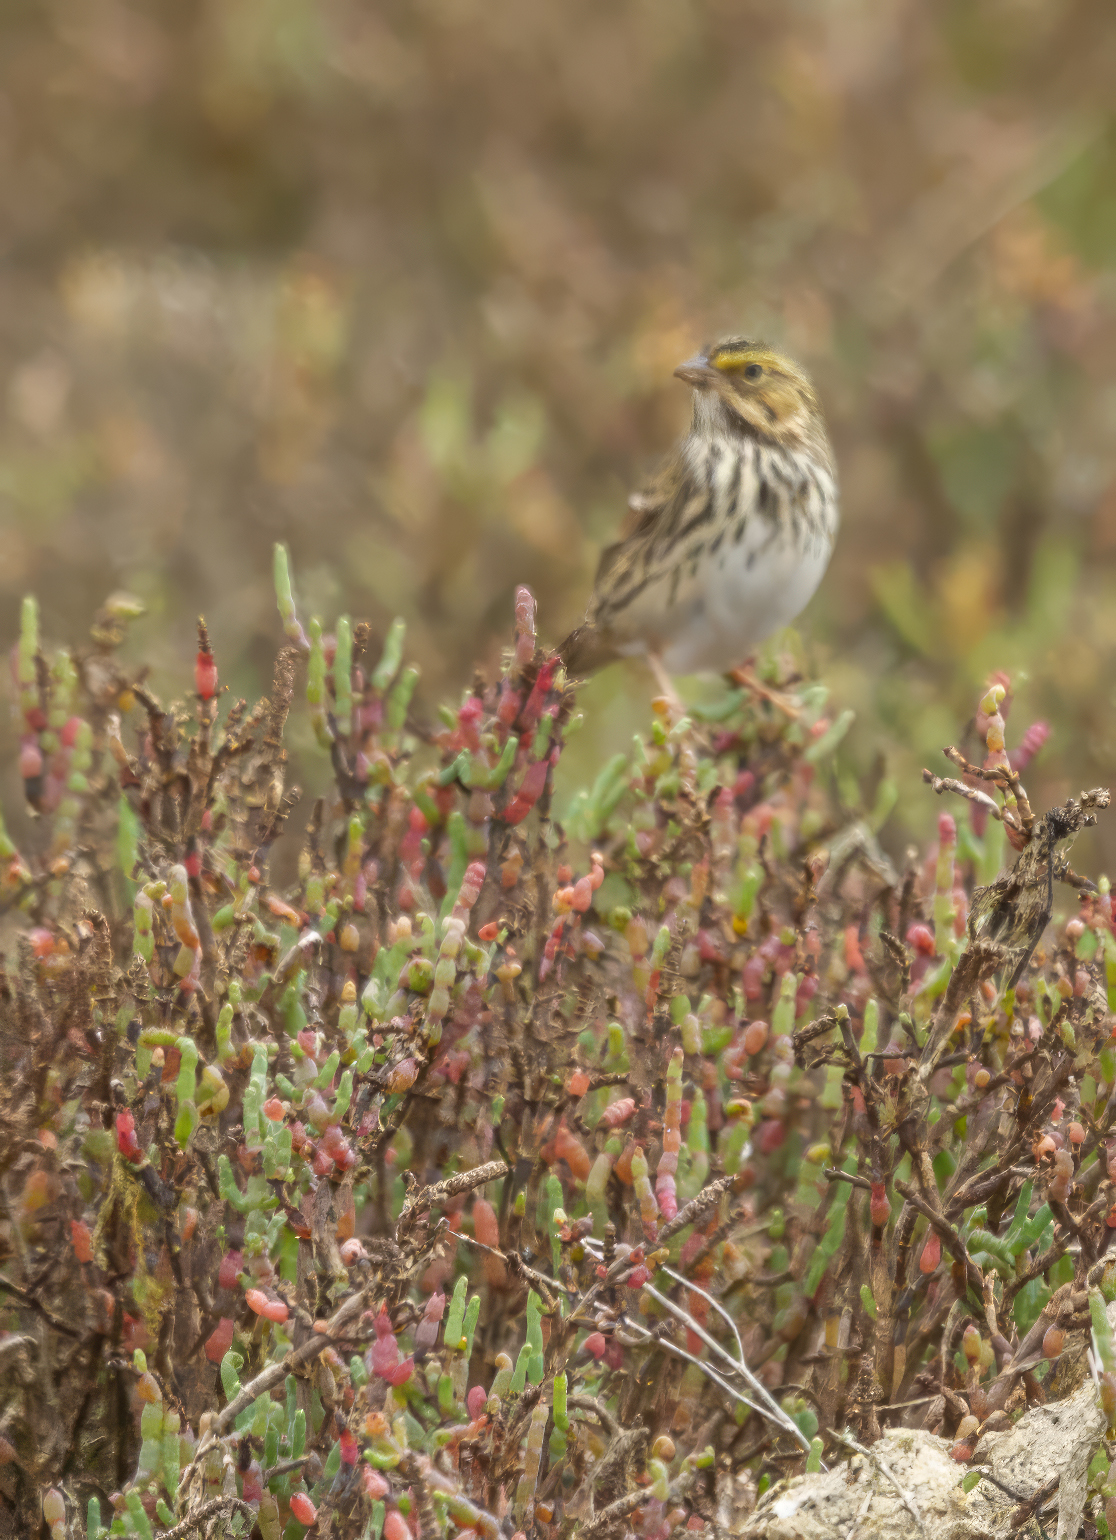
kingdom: Animalia
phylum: Chordata
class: Aves
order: Passeriformes
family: Passerellidae
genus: Passerculus
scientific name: Passerculus sandwichensis
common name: Savannah sparrow
